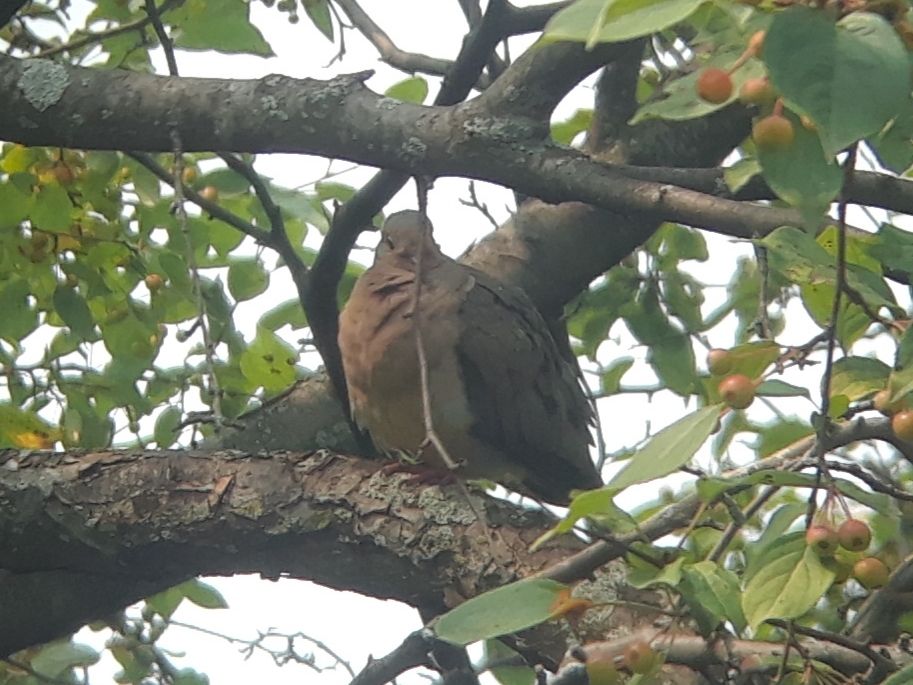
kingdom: Animalia
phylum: Chordata
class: Aves
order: Columbiformes
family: Columbidae
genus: Zenaida
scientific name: Zenaida macroura
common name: Mourning dove
